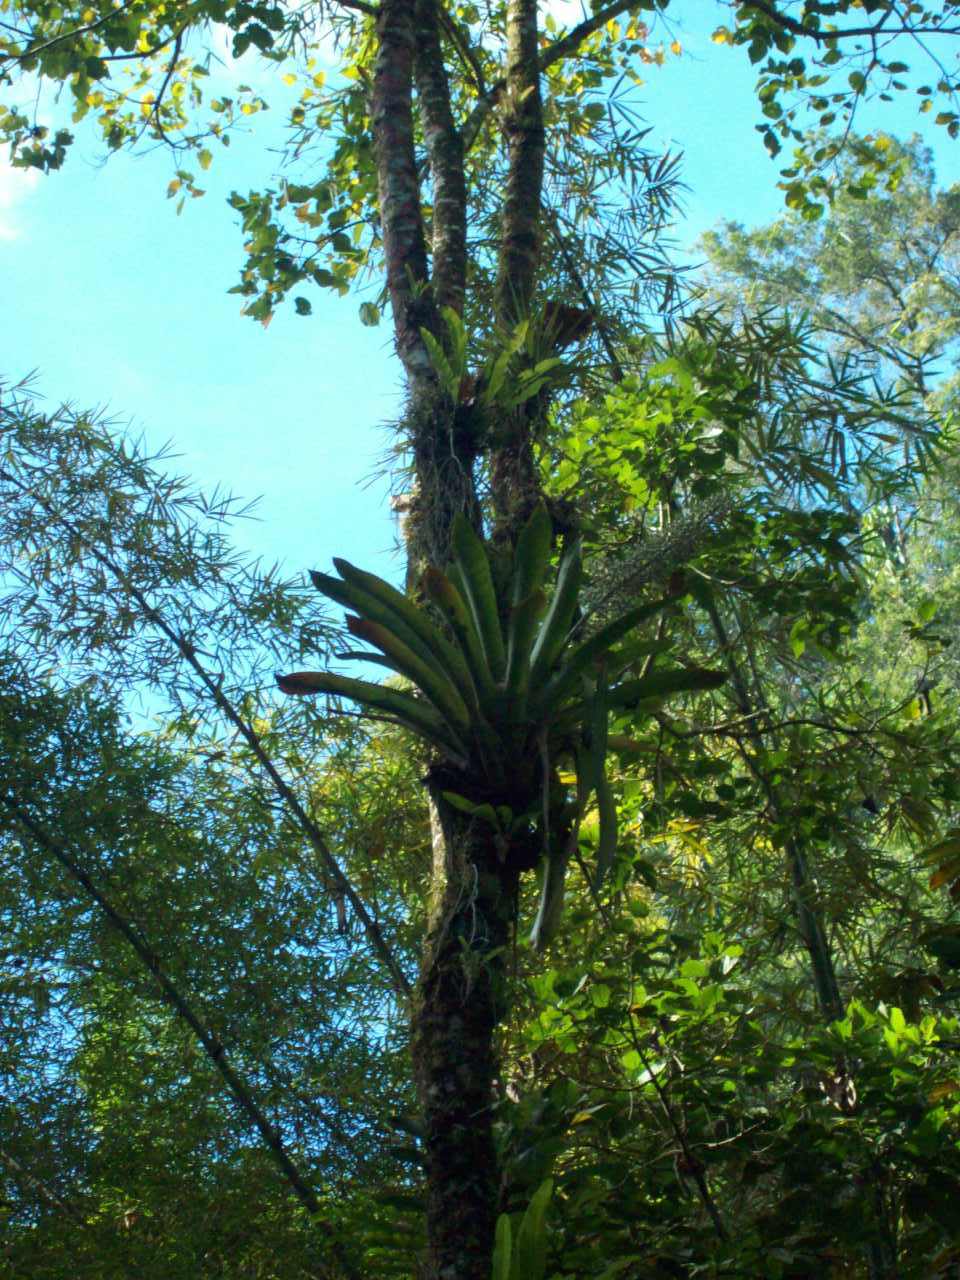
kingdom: Plantae
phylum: Tracheophyta
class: Liliopsida
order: Poales
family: Bromeliaceae
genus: Aechmea
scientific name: Aechmea mexicana
